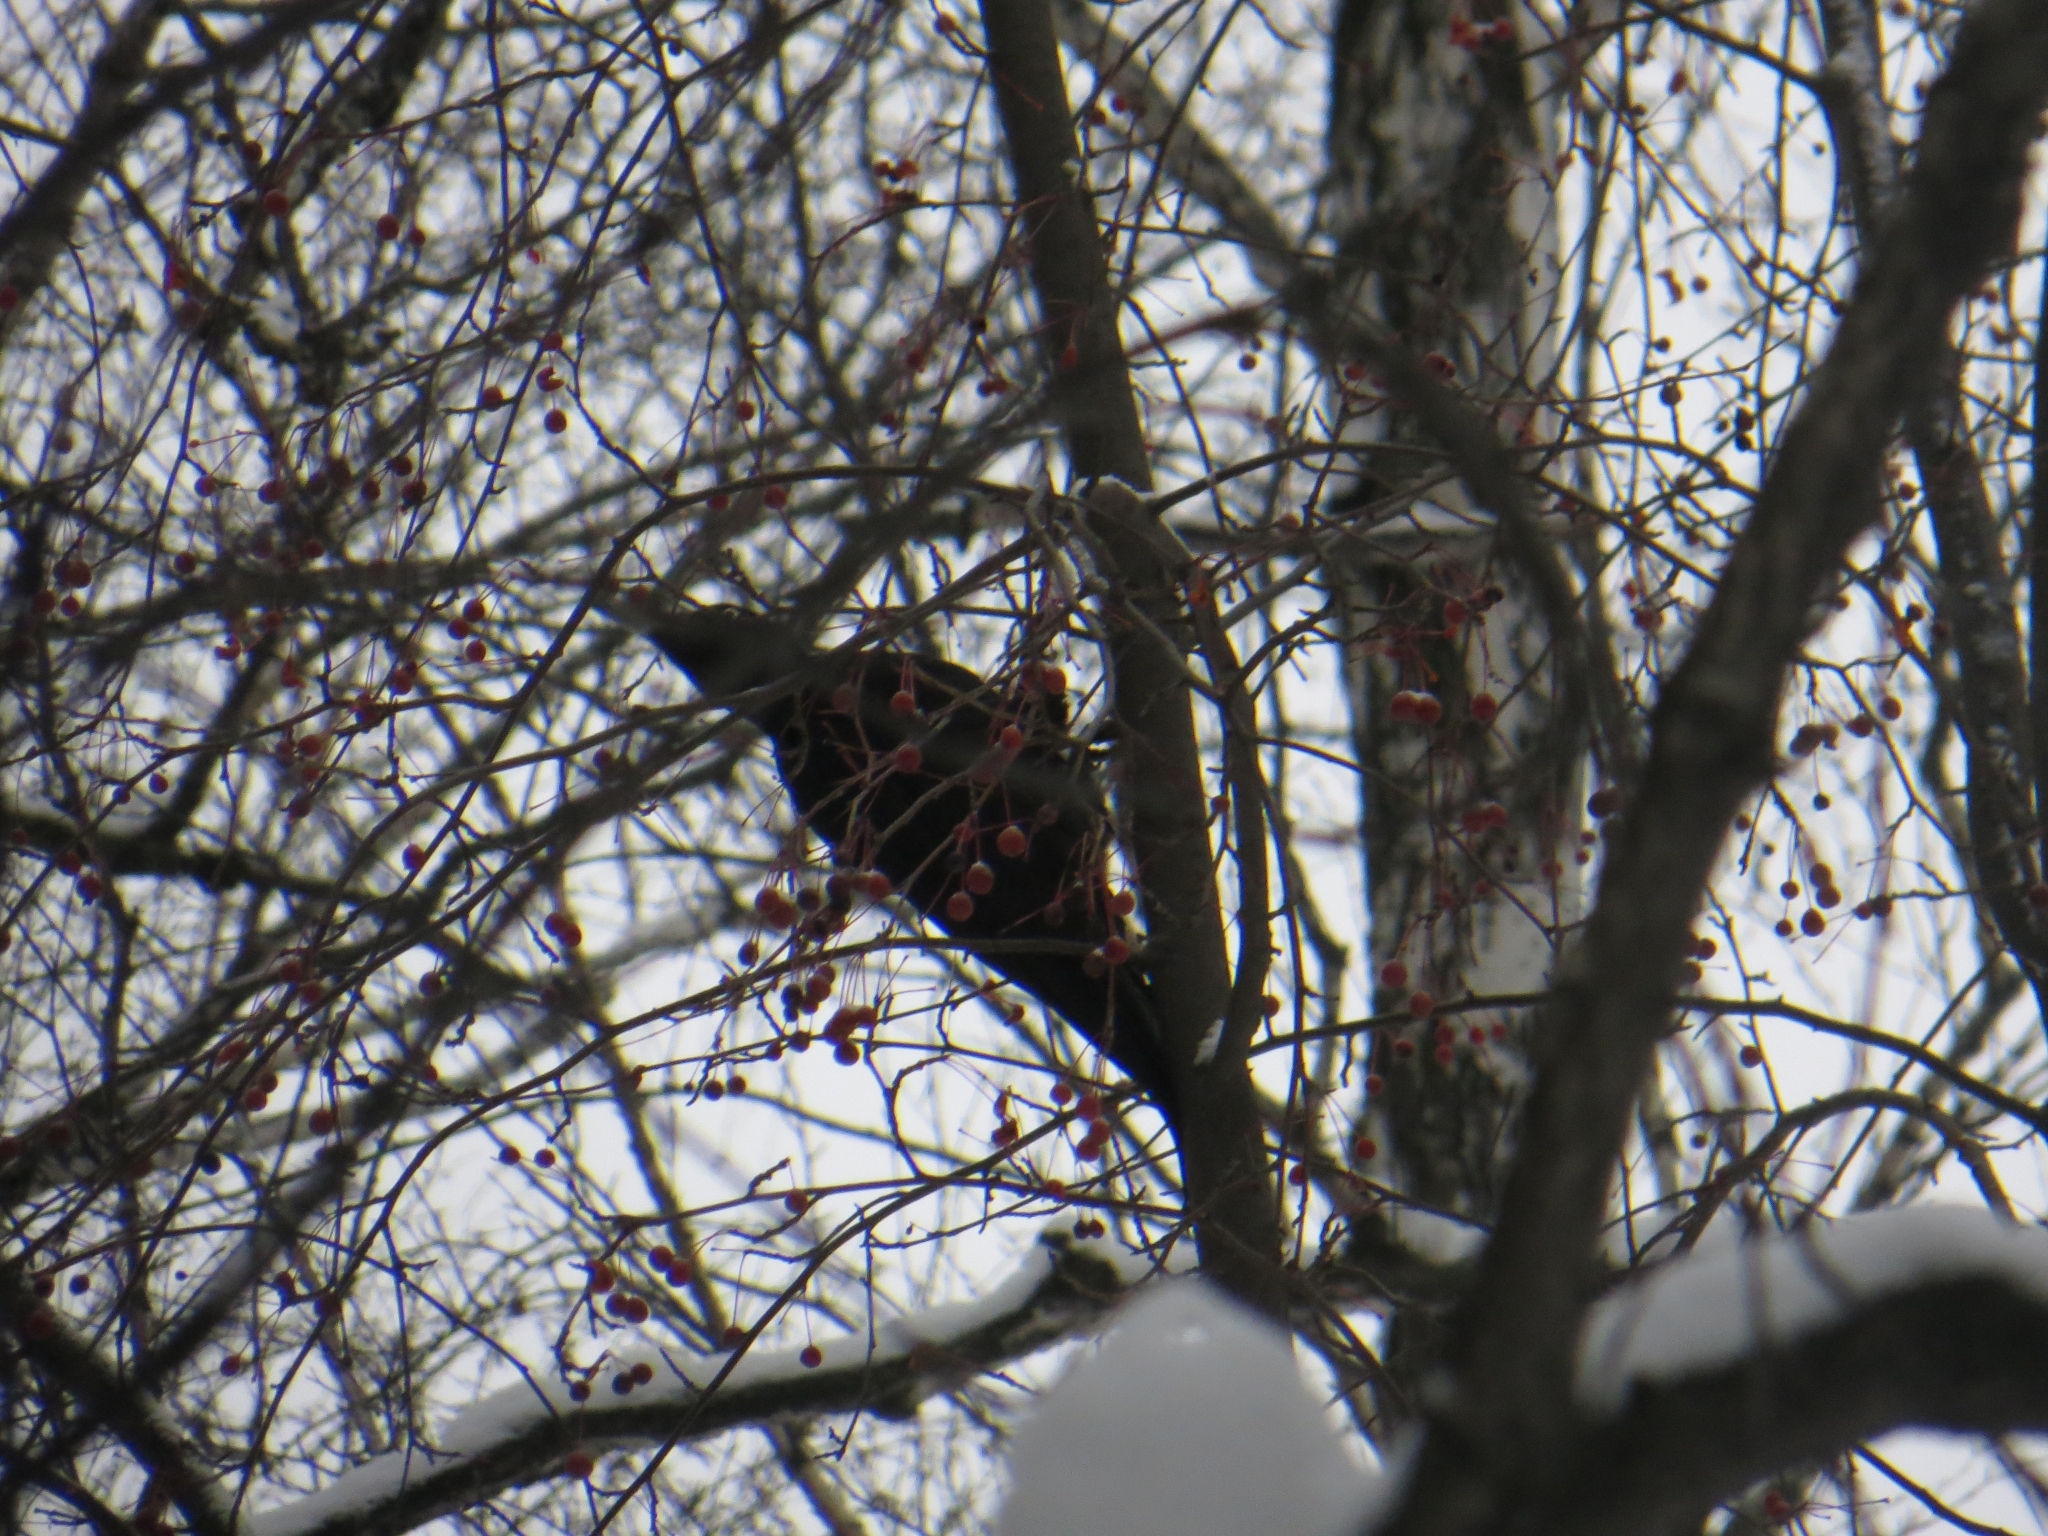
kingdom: Animalia
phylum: Chordata
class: Aves
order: Piciformes
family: Picidae
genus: Dryocopus
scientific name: Dryocopus martius
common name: Black woodpecker
